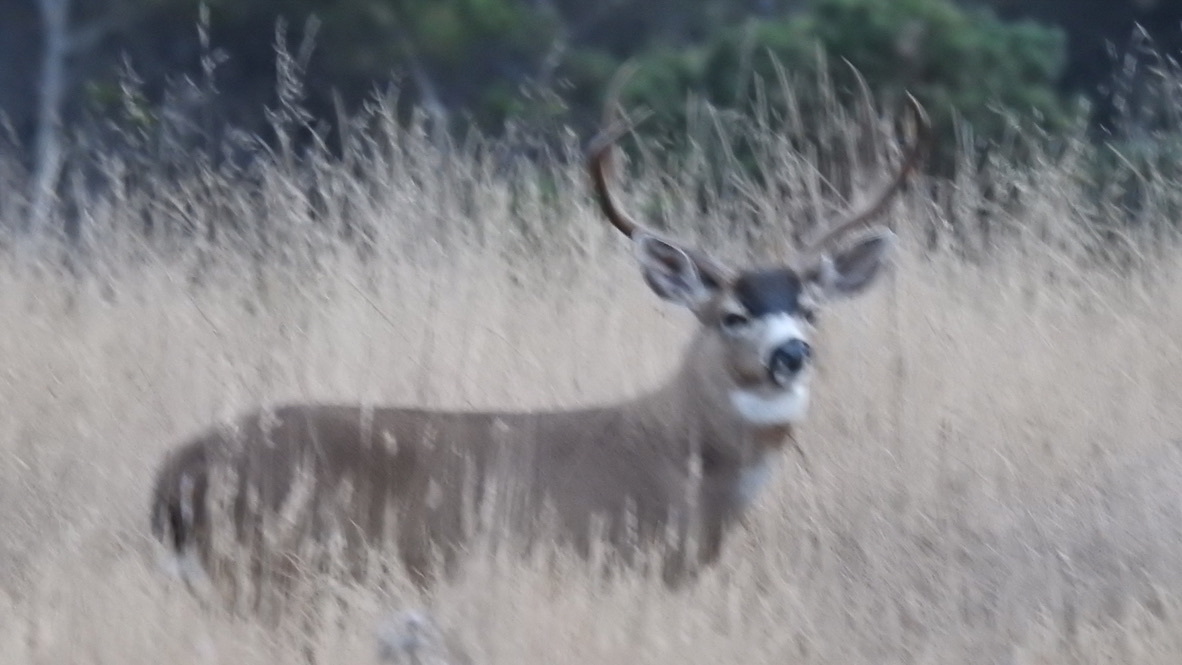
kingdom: Animalia
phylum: Chordata
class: Mammalia
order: Artiodactyla
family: Cervidae
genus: Odocoileus
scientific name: Odocoileus hemionus
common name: Mule deer
